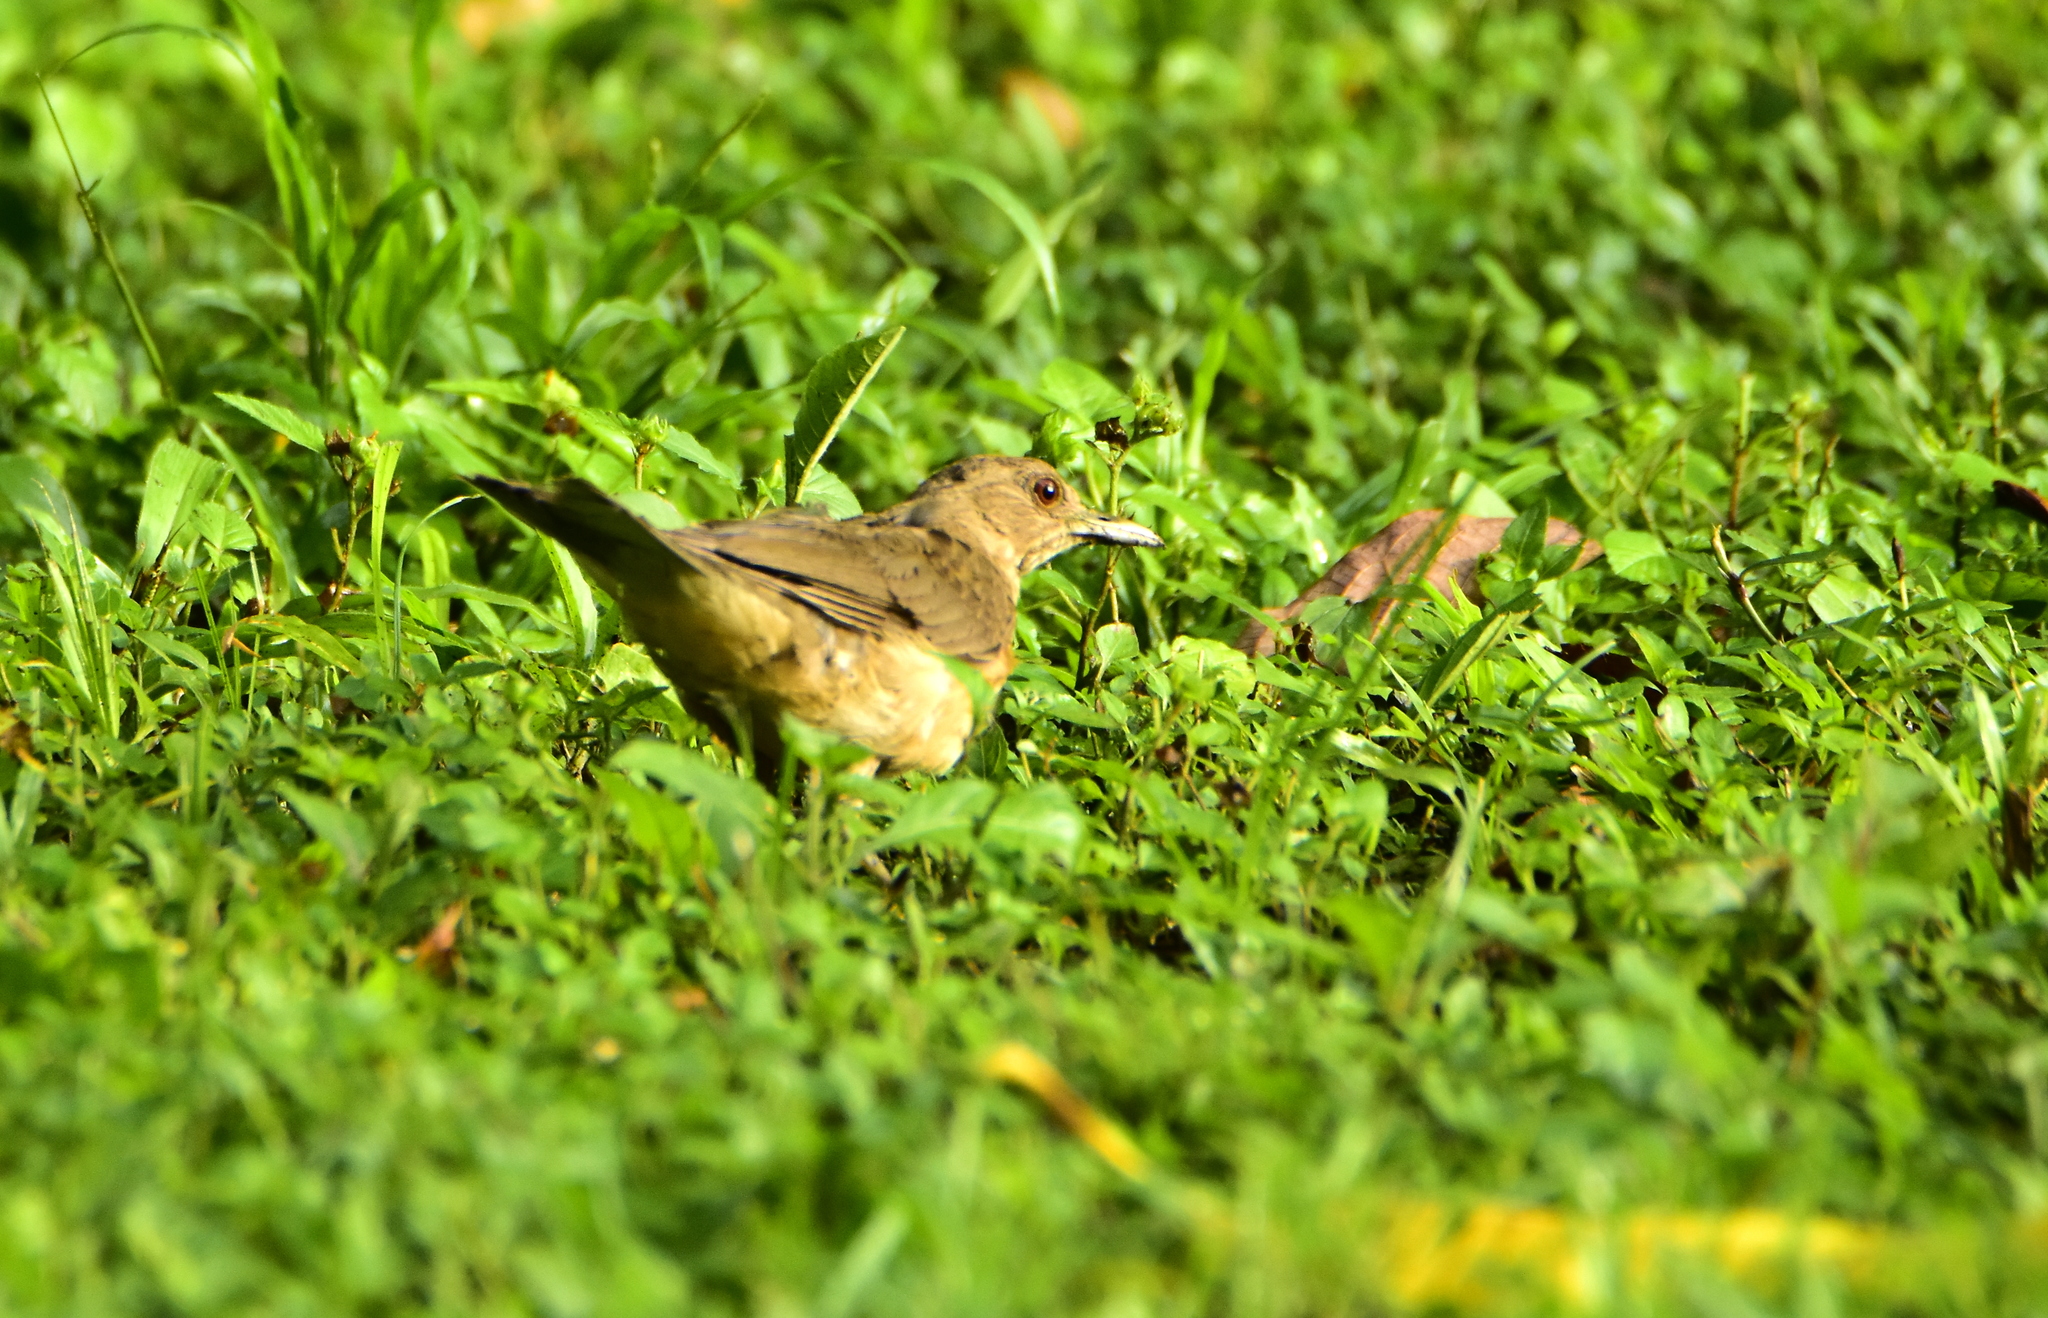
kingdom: Animalia
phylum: Chordata
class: Aves
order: Passeriformes
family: Turdidae
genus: Turdus
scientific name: Turdus grayi
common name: Clay-colored thrush
